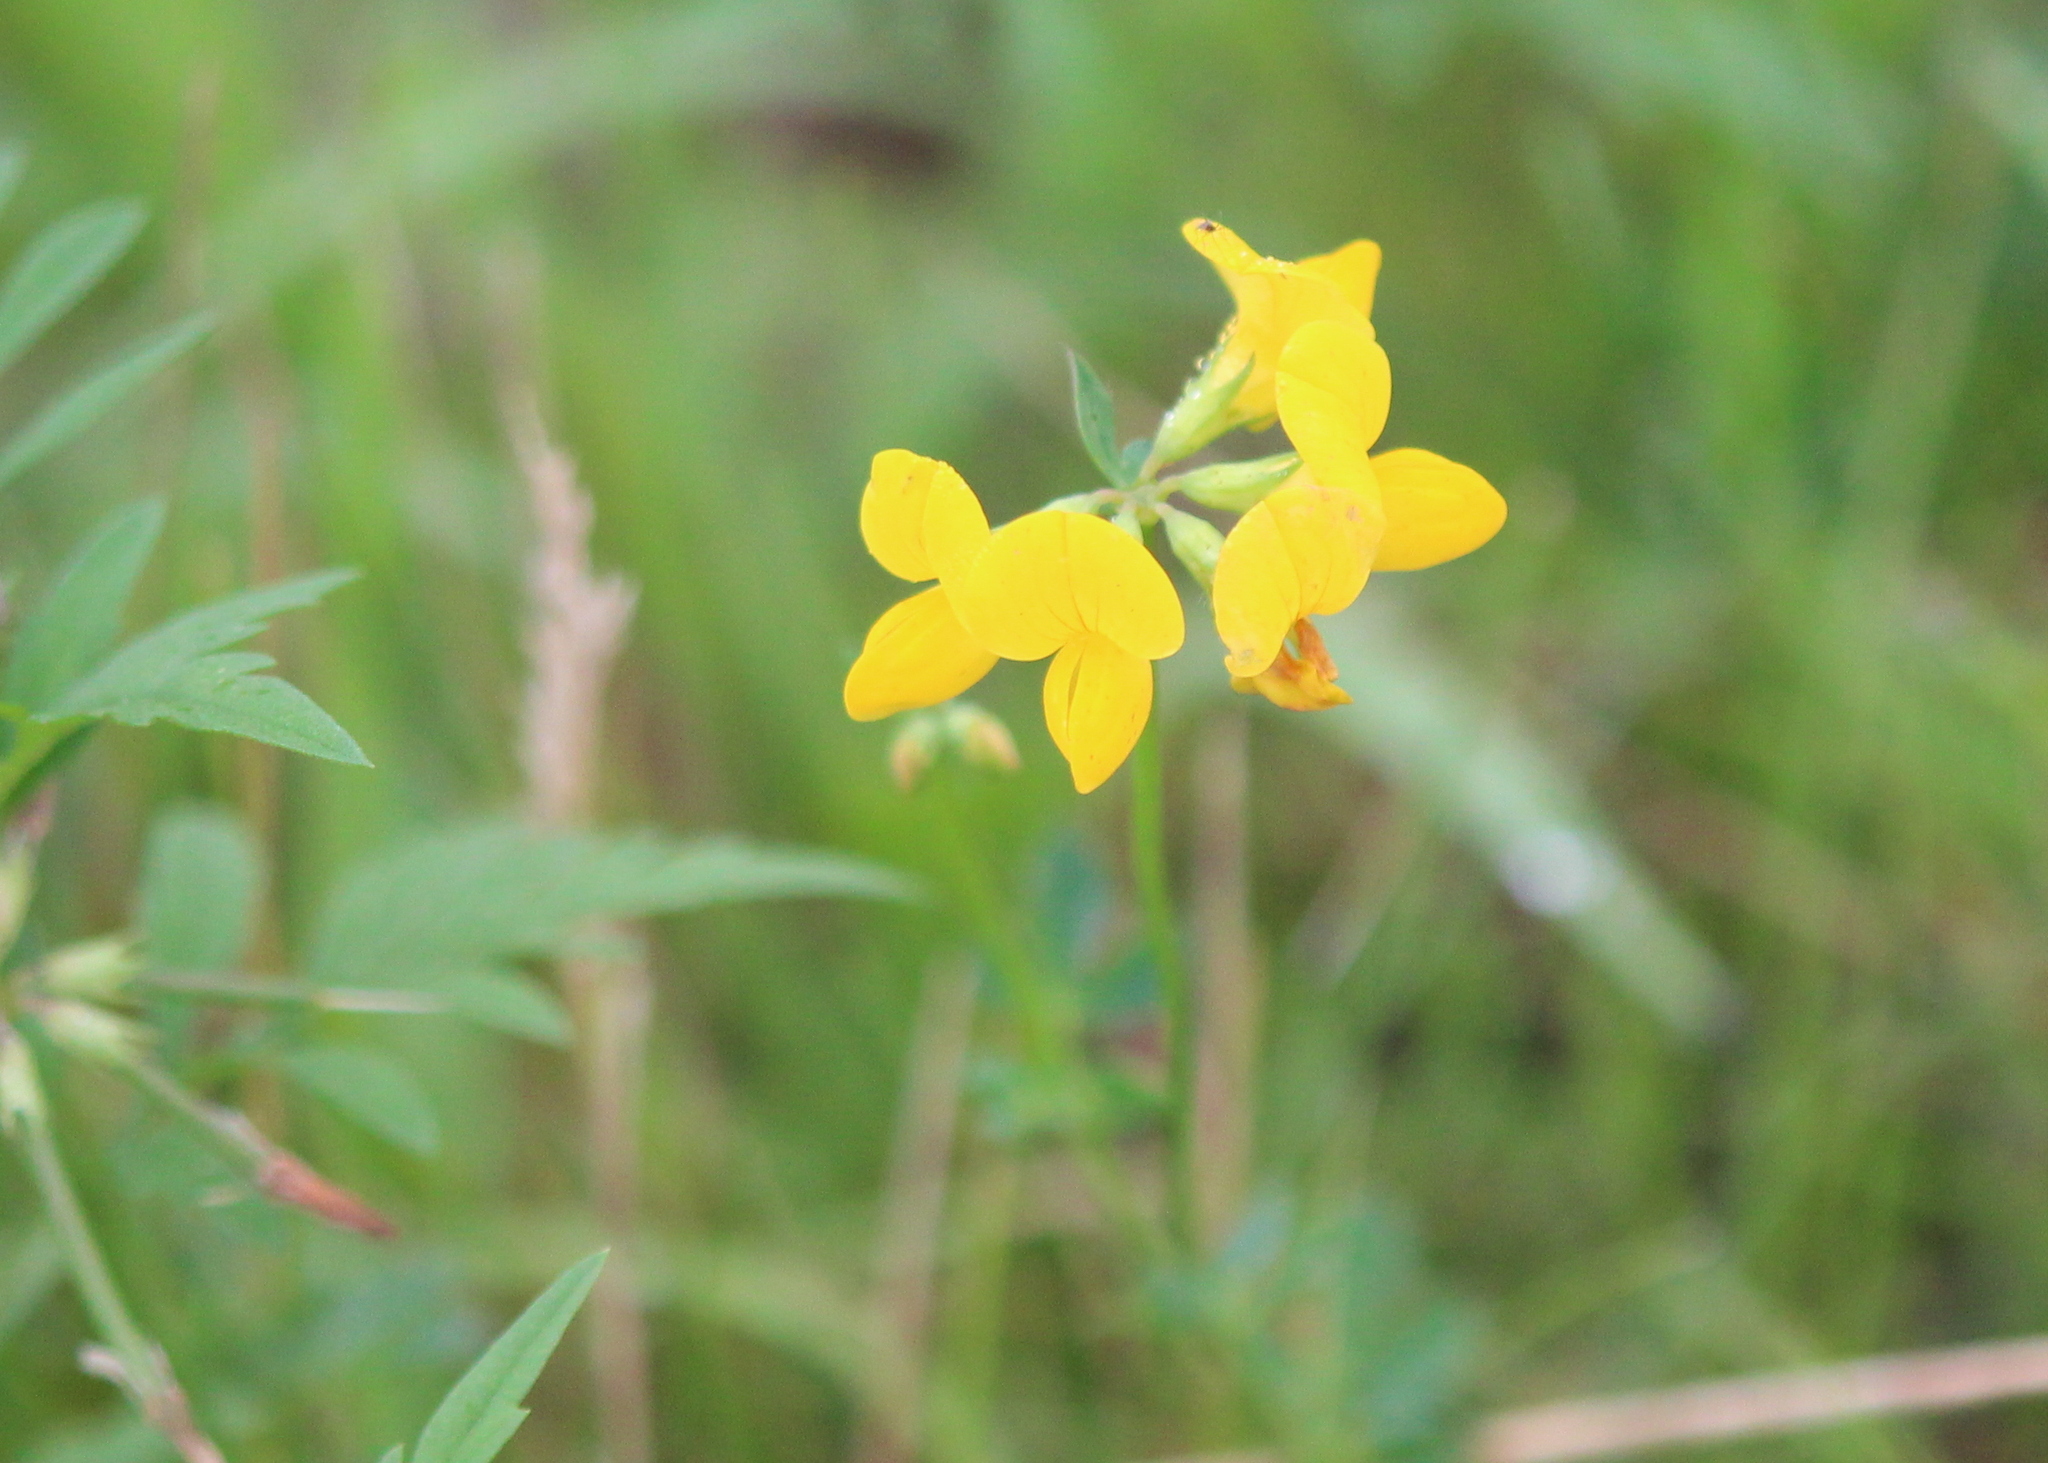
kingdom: Plantae
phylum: Tracheophyta
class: Magnoliopsida
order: Fabales
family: Fabaceae
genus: Lotus
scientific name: Lotus corniculatus
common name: Common bird's-foot-trefoil
